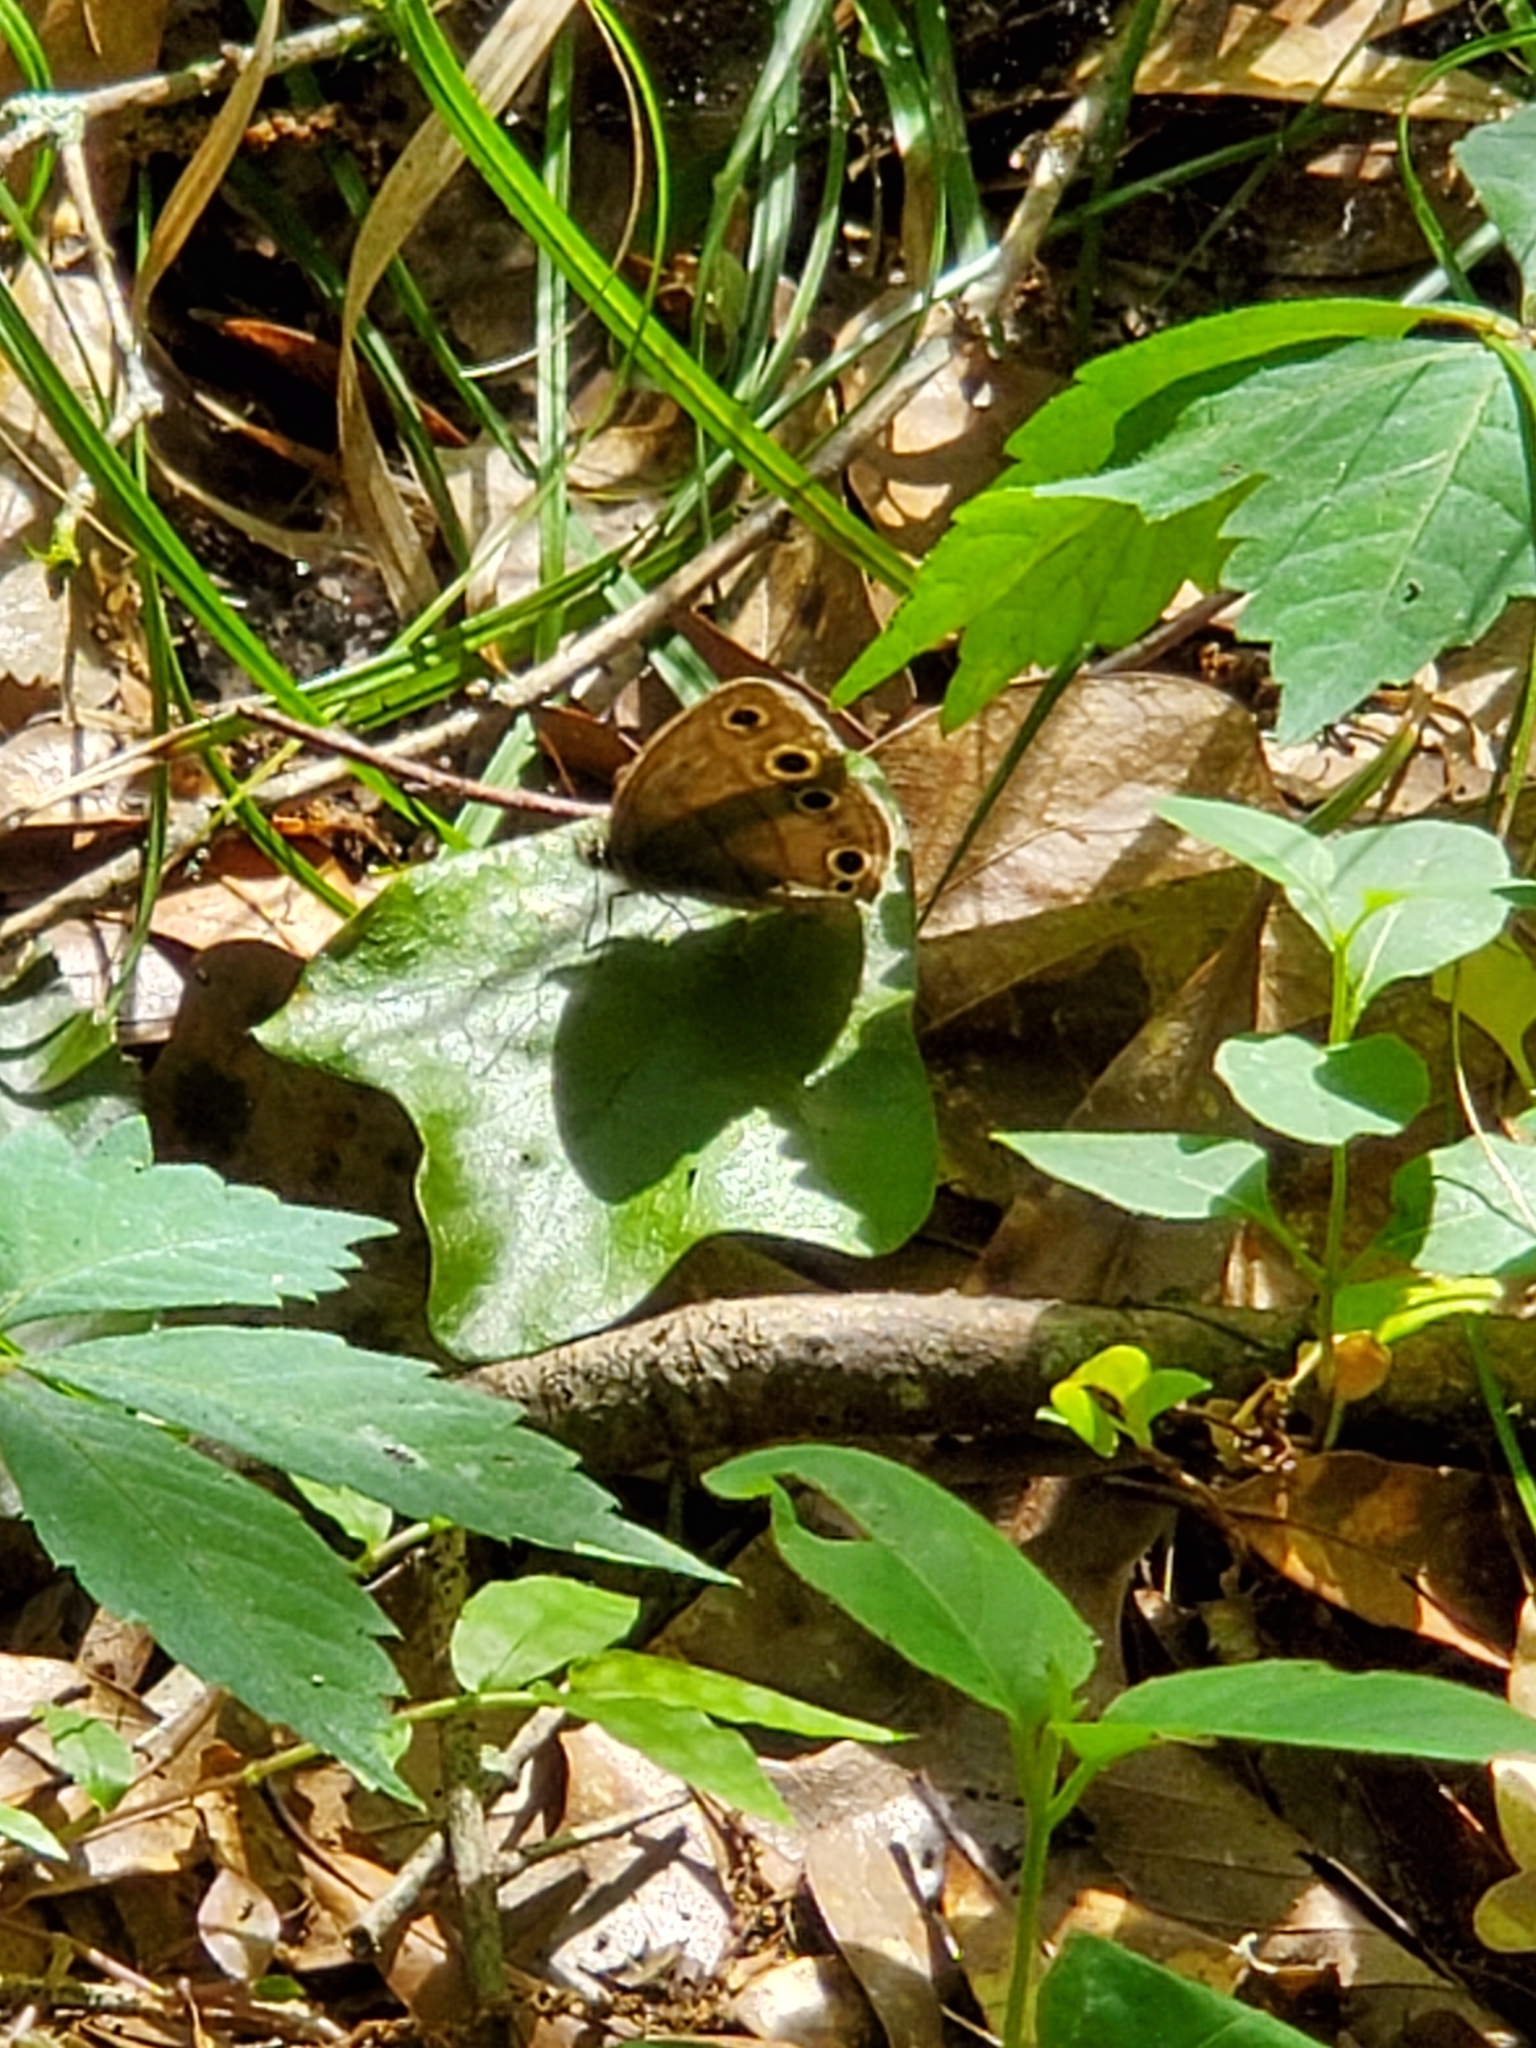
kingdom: Animalia
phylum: Arthropoda
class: Insecta
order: Lepidoptera
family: Nymphalidae
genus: Euptychia
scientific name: Euptychia cymela
